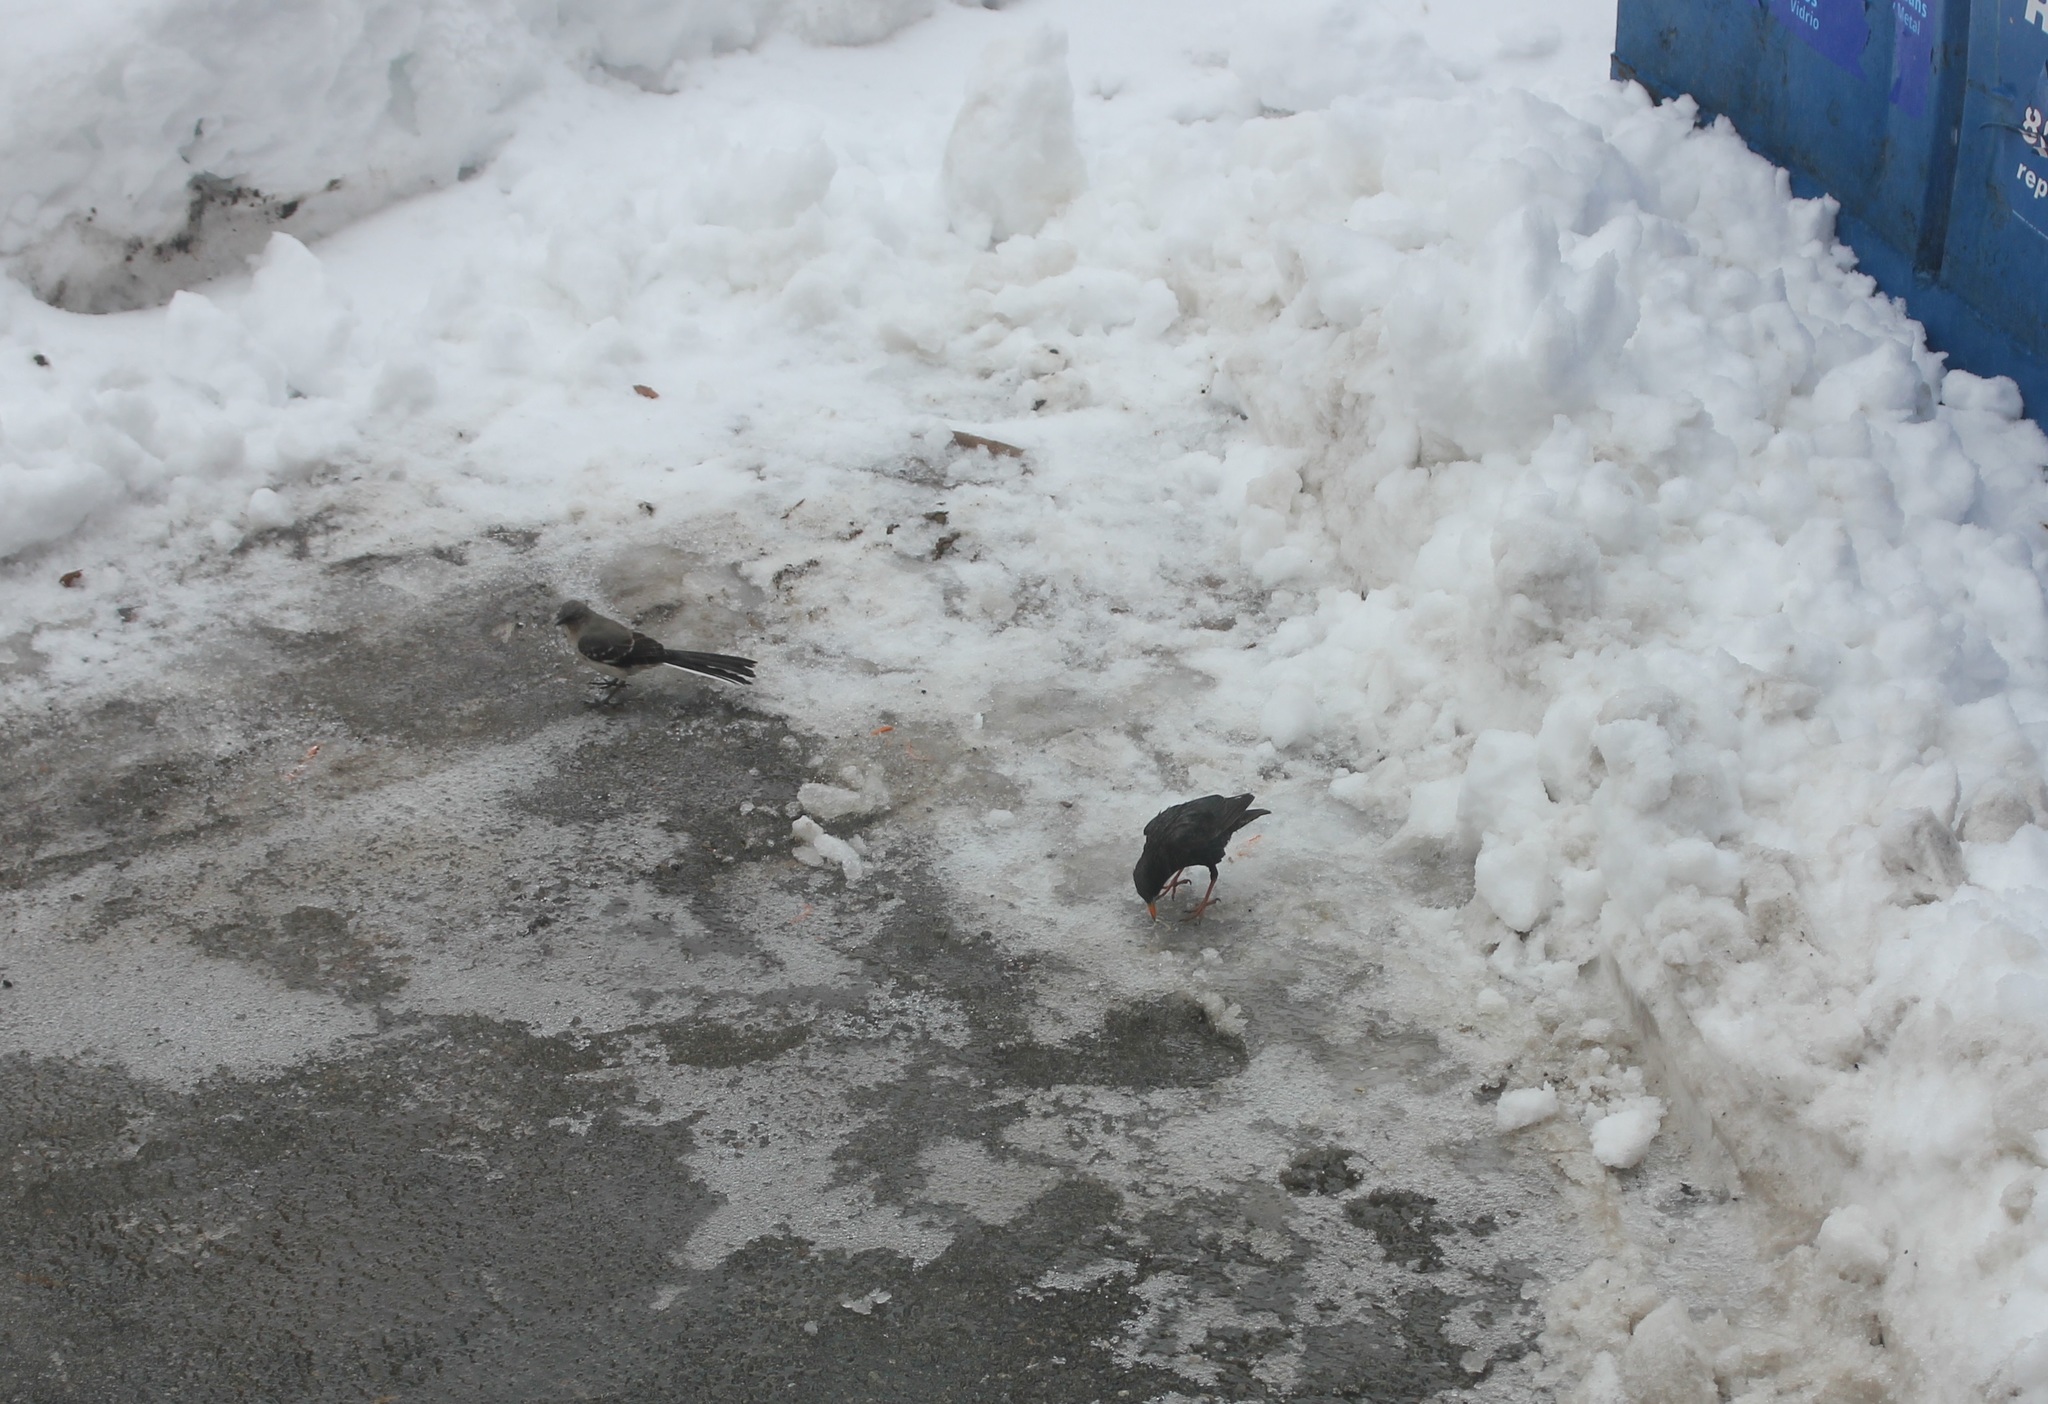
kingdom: Animalia
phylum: Chordata
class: Aves
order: Passeriformes
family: Sturnidae
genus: Sturnus
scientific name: Sturnus vulgaris
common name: Common starling
